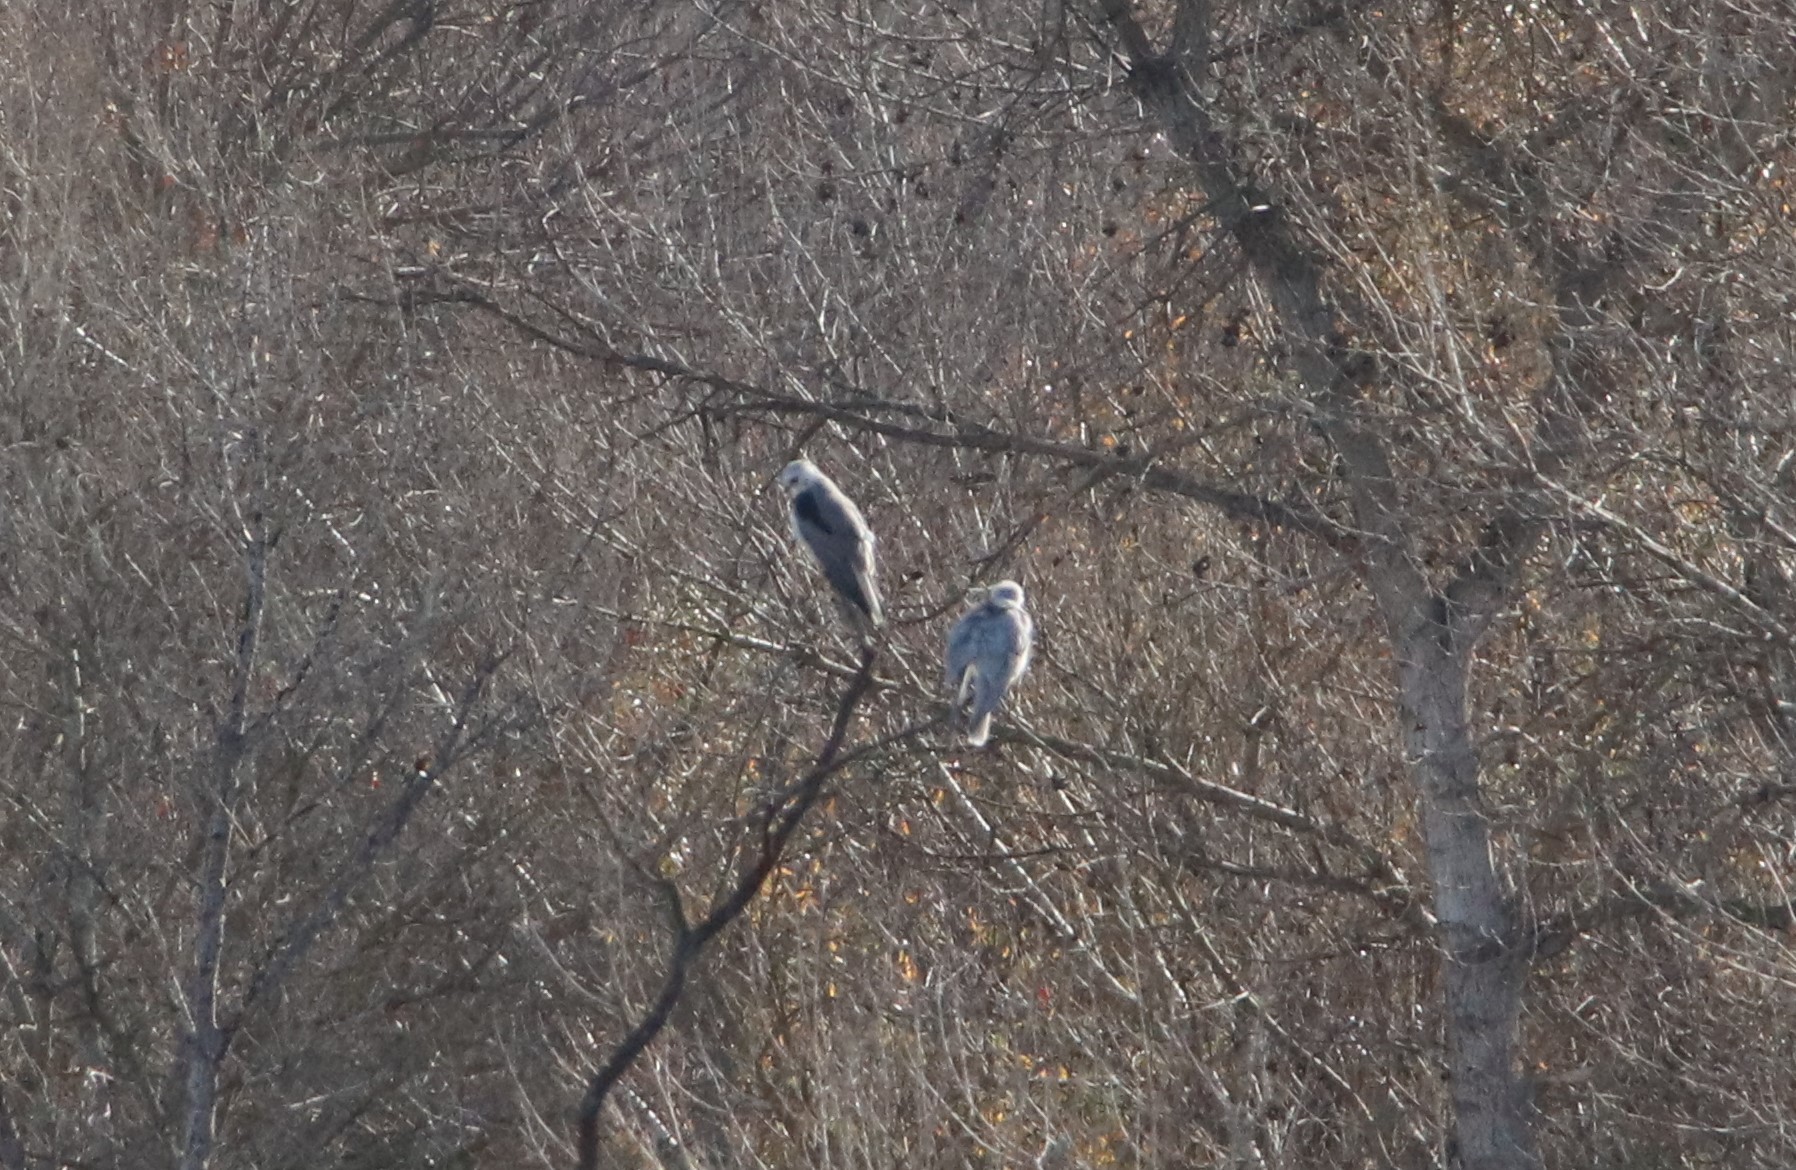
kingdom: Animalia
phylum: Chordata
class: Aves
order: Accipitriformes
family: Accipitridae
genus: Elanus
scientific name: Elanus leucurus
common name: White-tailed kite
